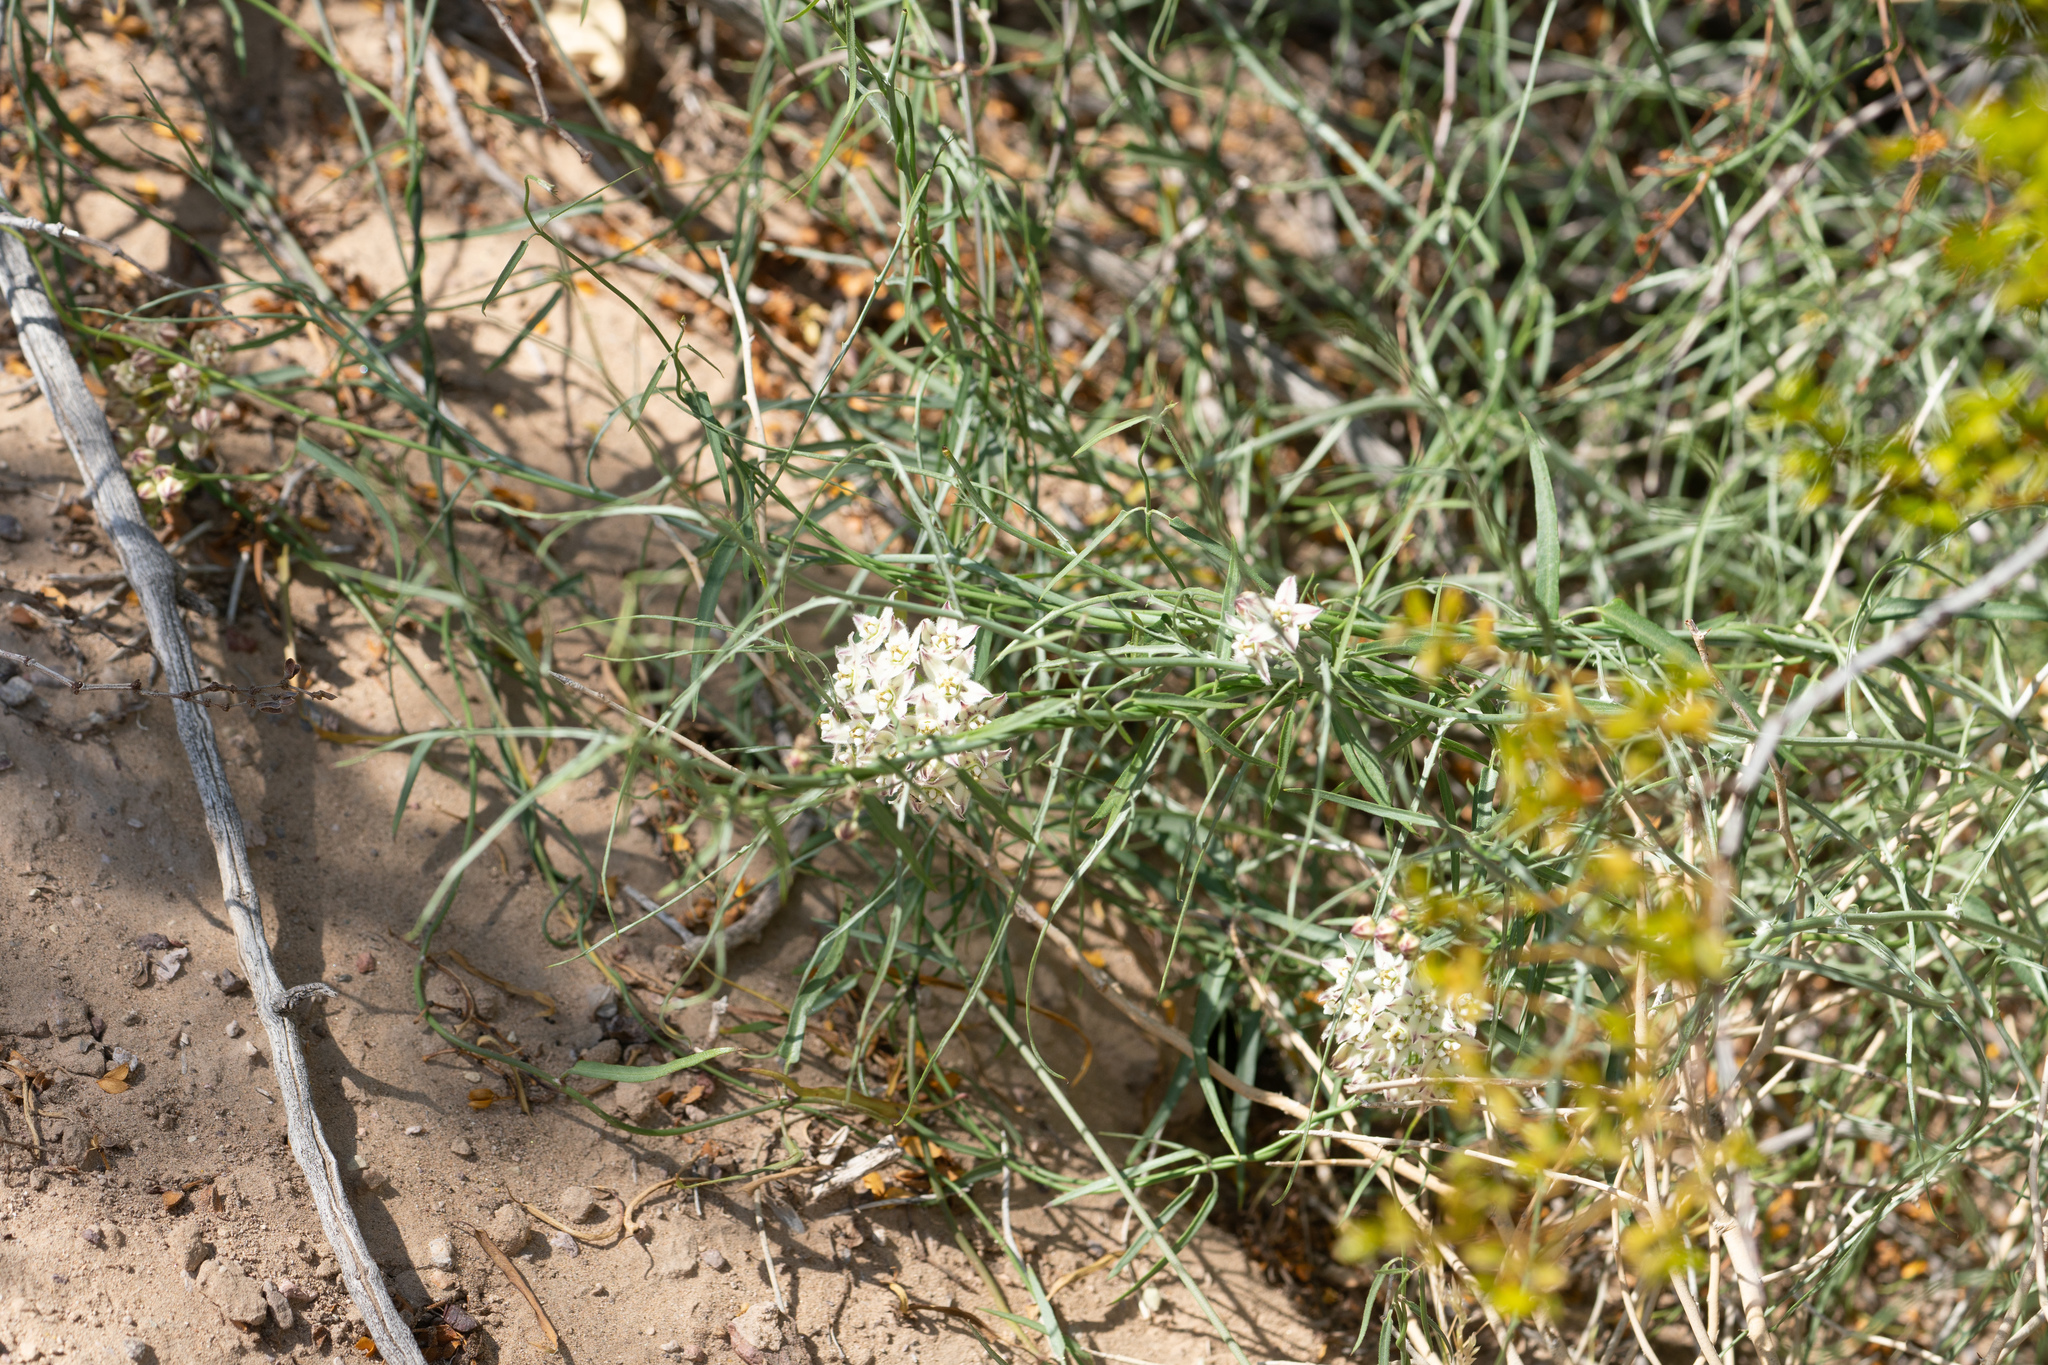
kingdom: Plantae
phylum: Tracheophyta
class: Magnoliopsida
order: Gentianales
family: Apocynaceae
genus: Funastrum
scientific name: Funastrum heterophyllum
